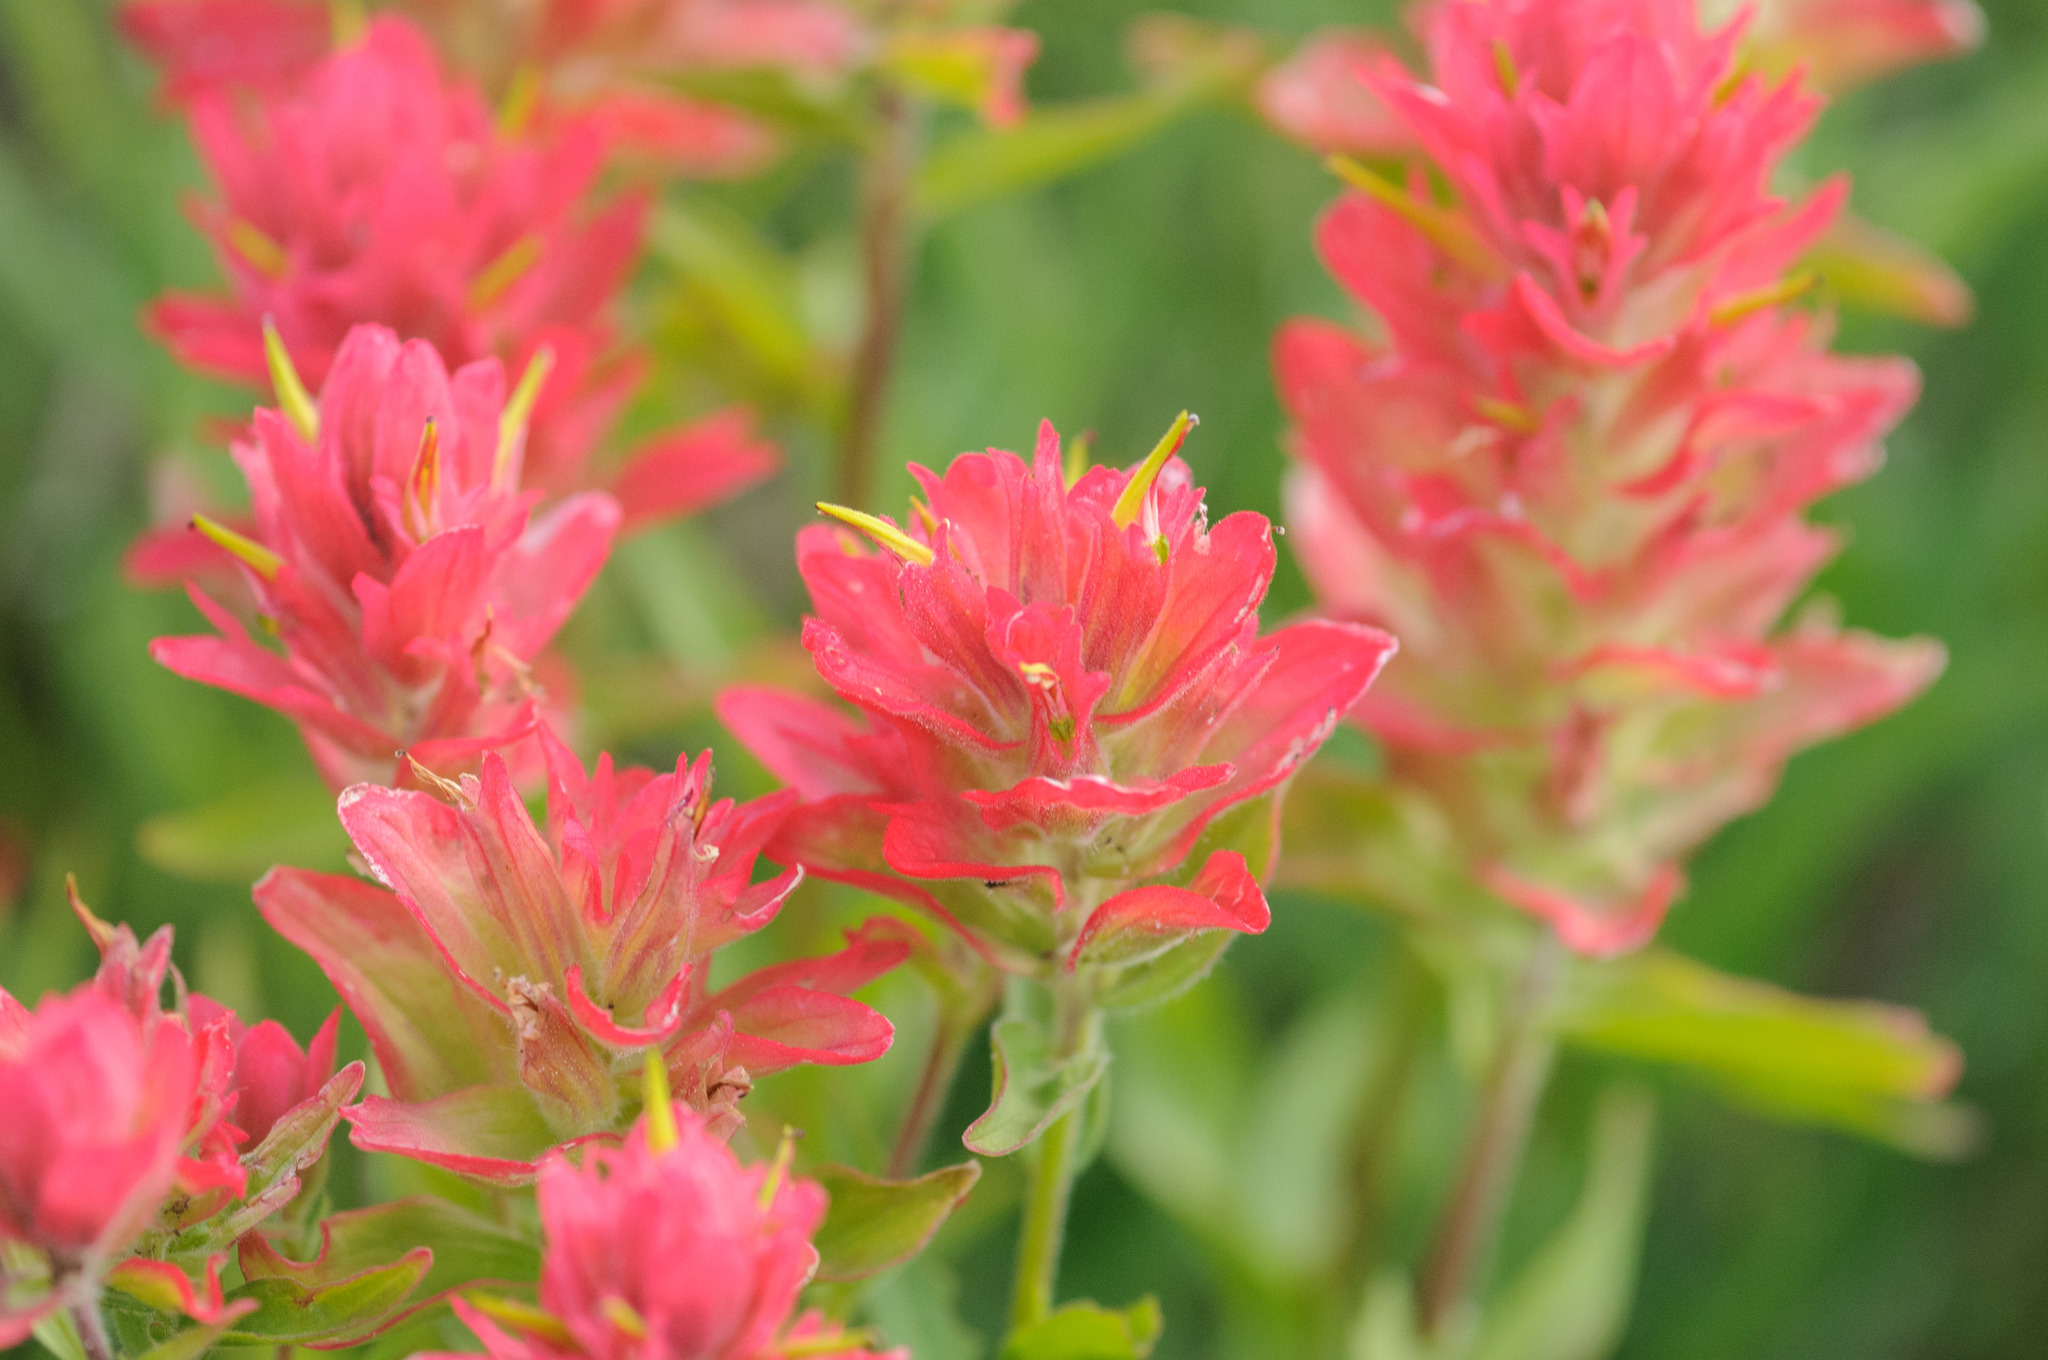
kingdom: Plantae
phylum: Tracheophyta
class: Magnoliopsida
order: Lamiales
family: Orobanchaceae
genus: Castilleja
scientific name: Castilleja rhexifolia
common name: Rocky mountain paintbrush
